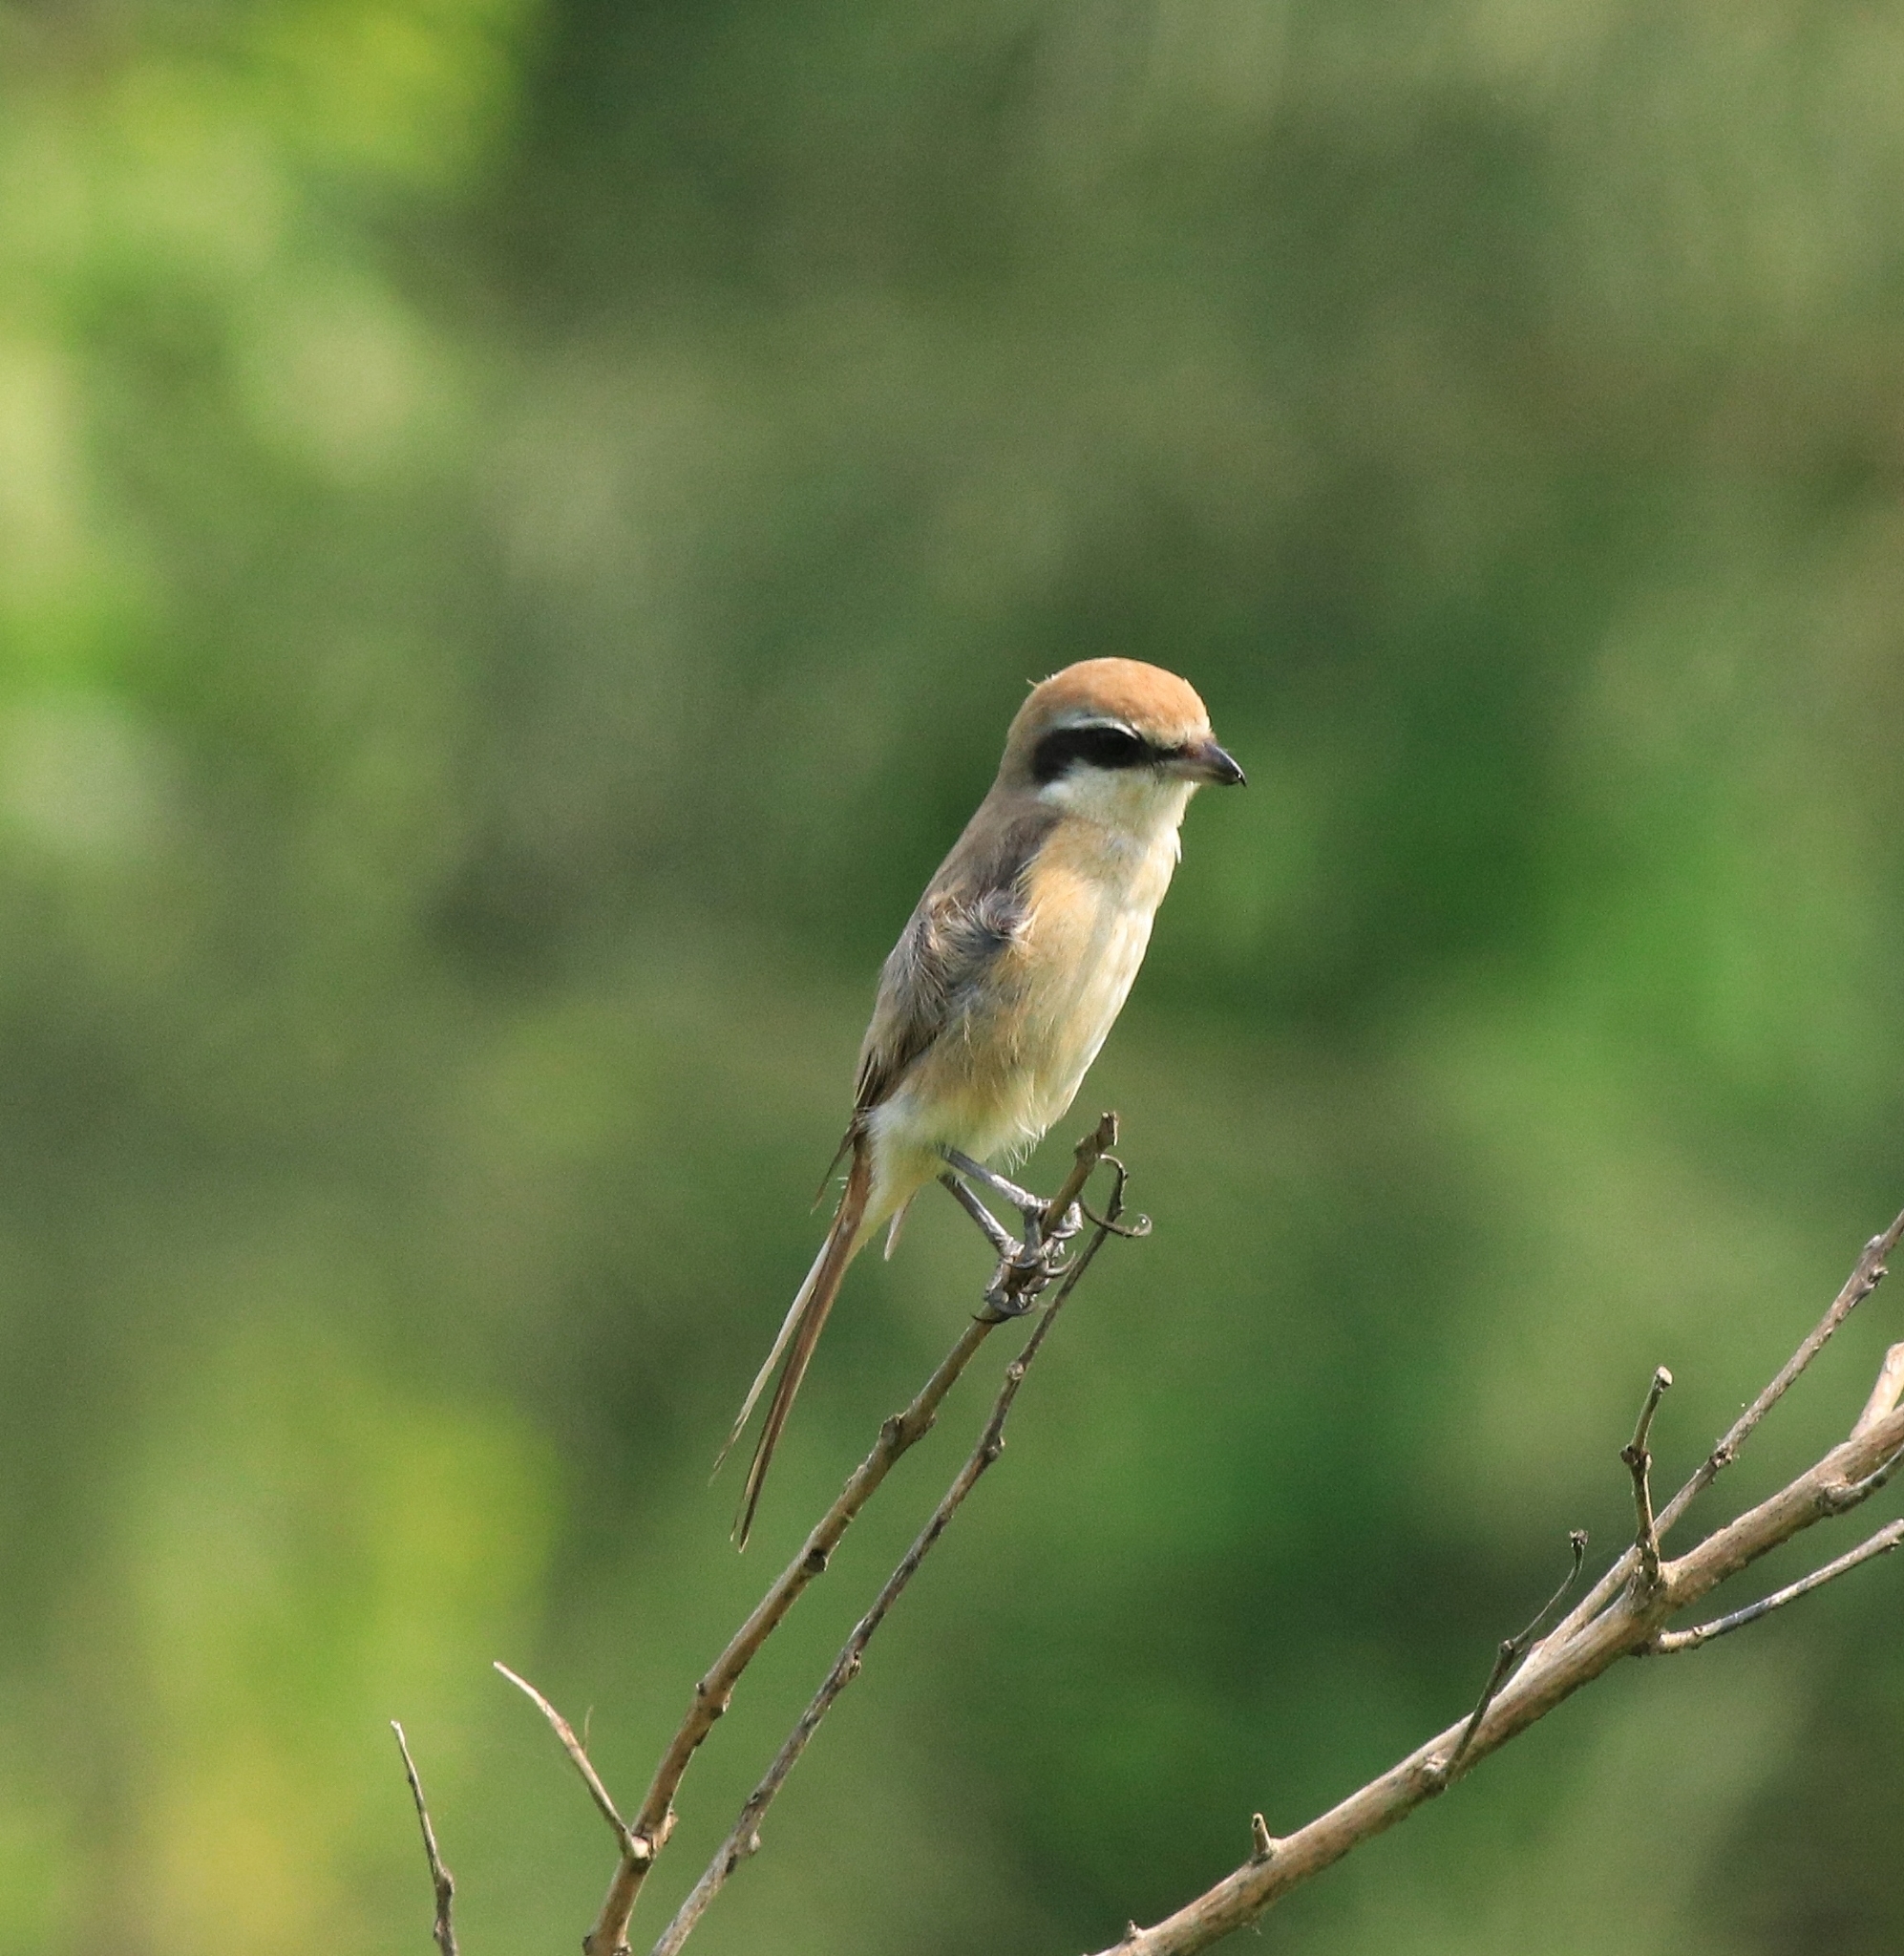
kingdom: Animalia
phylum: Chordata
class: Aves
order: Passeriformes
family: Laniidae
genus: Lanius
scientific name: Lanius cristatus
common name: Brown shrike
